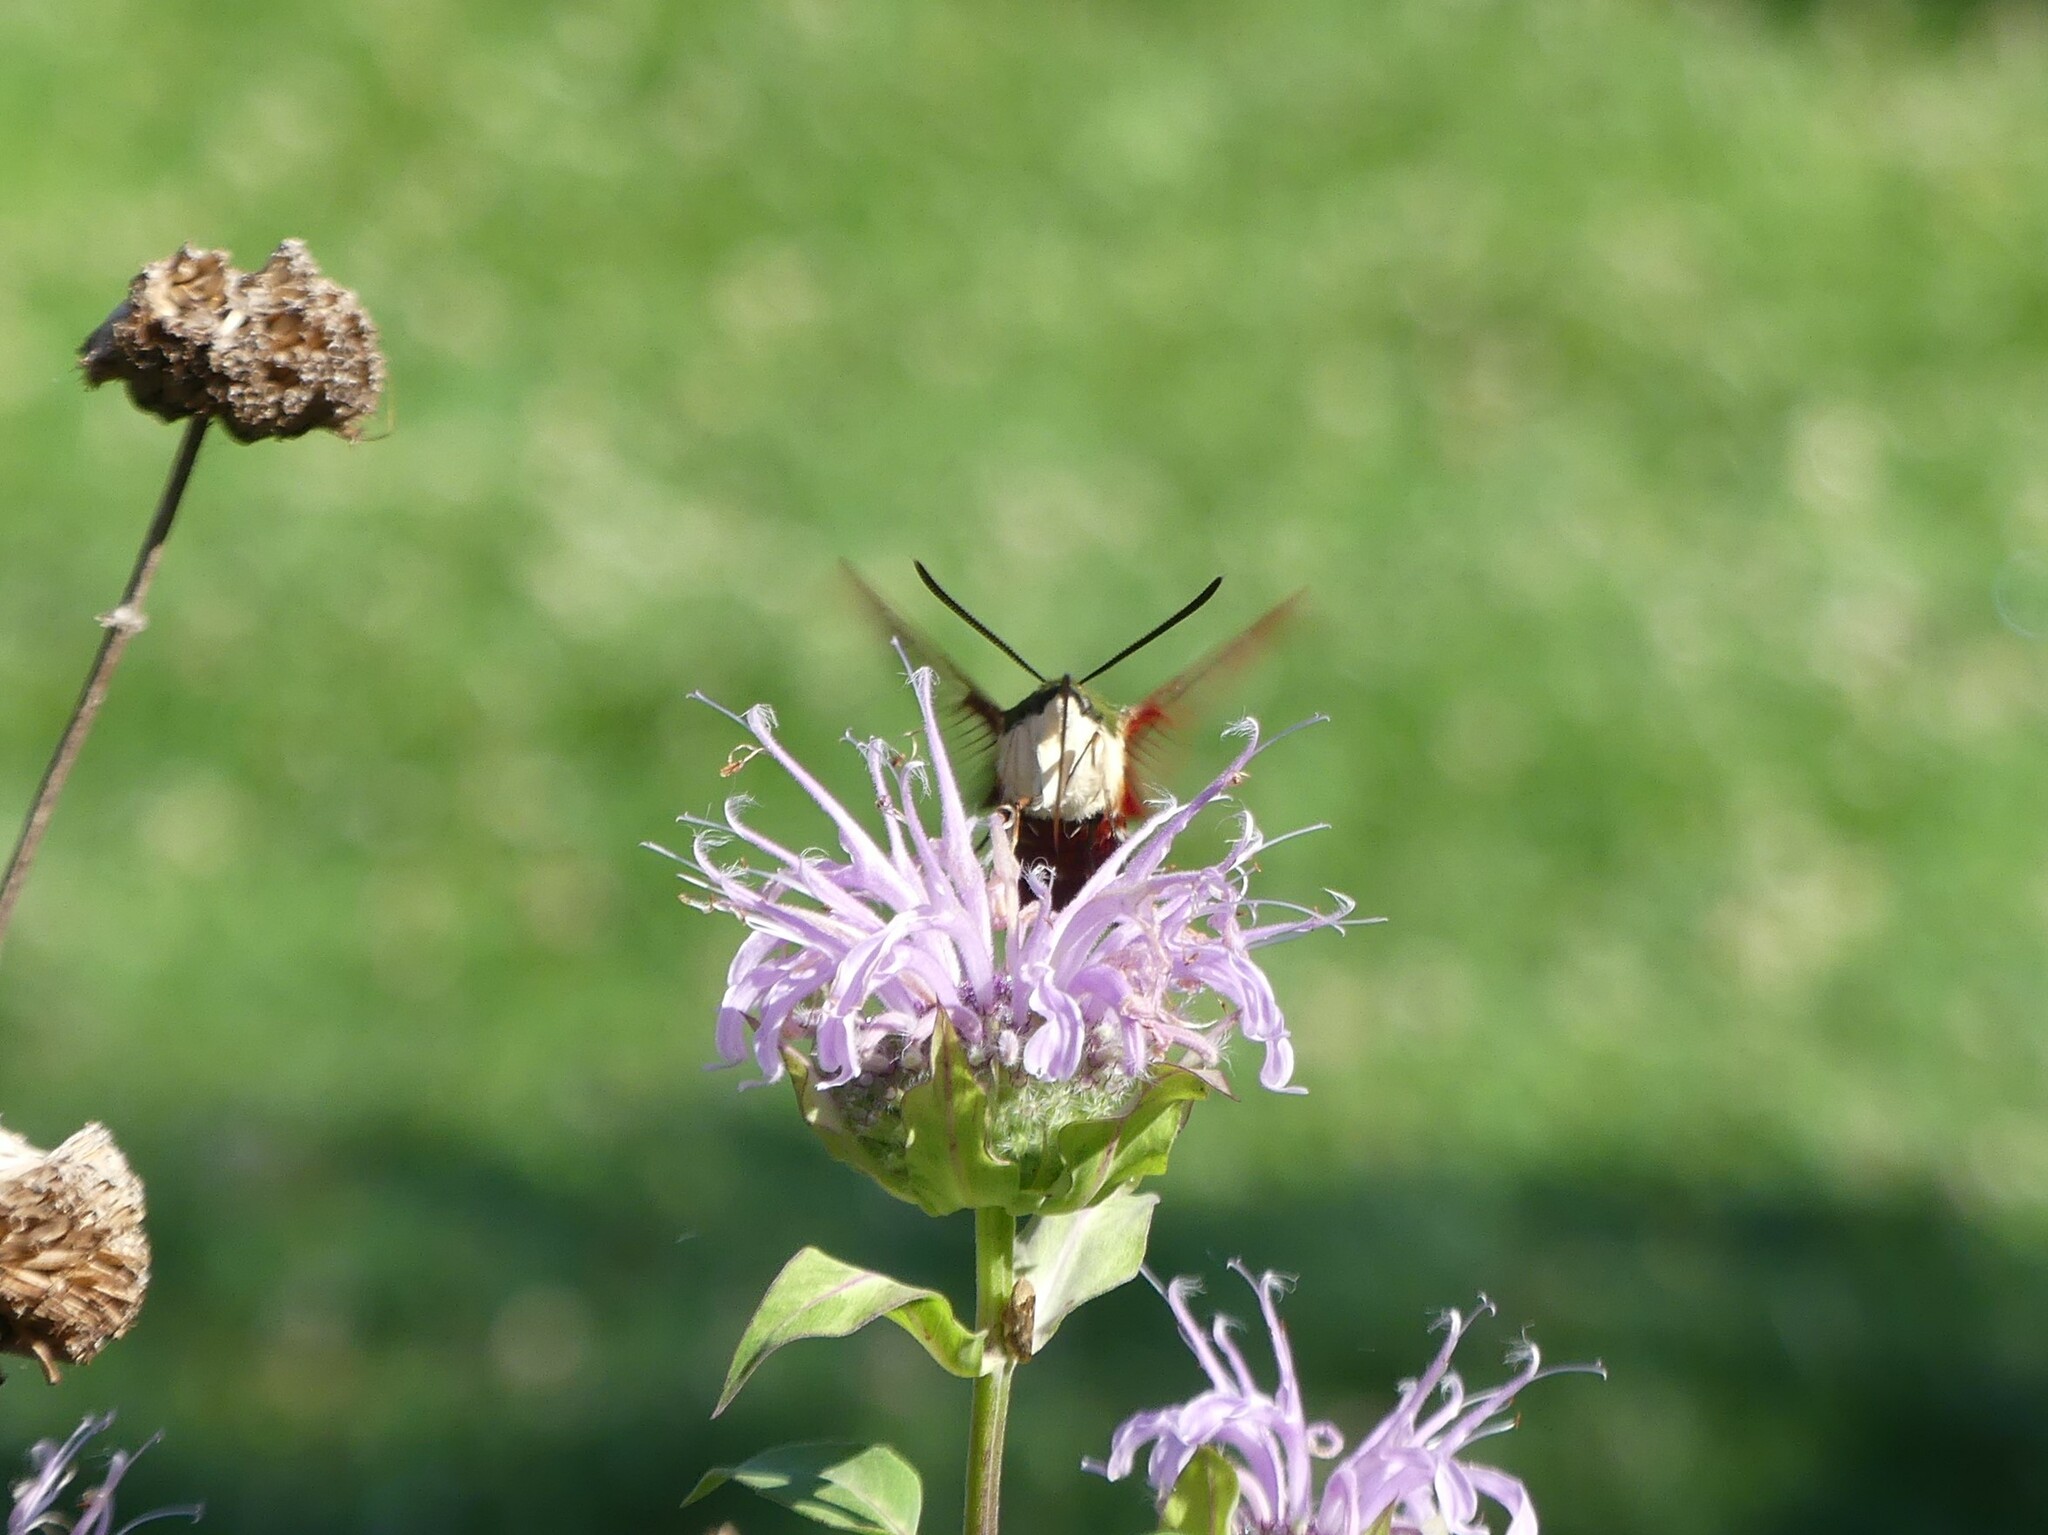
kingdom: Animalia
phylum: Arthropoda
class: Insecta
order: Lepidoptera
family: Sphingidae
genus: Hemaris
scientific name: Hemaris thysbe
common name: Common clear-wing
